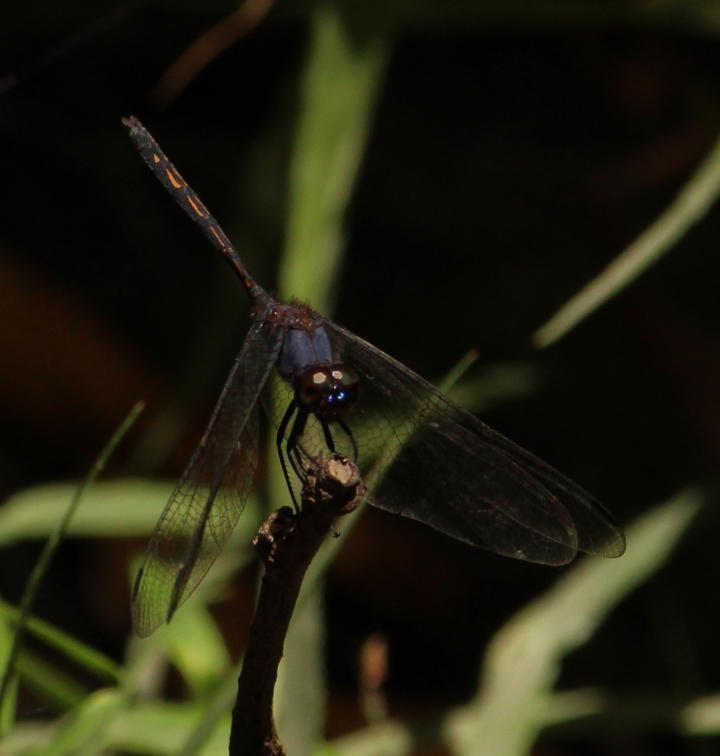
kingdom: Animalia
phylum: Arthropoda
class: Insecta
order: Odonata
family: Libellulidae
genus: Trithemis
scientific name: Trithemis aconita
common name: Halfshade dropwing
